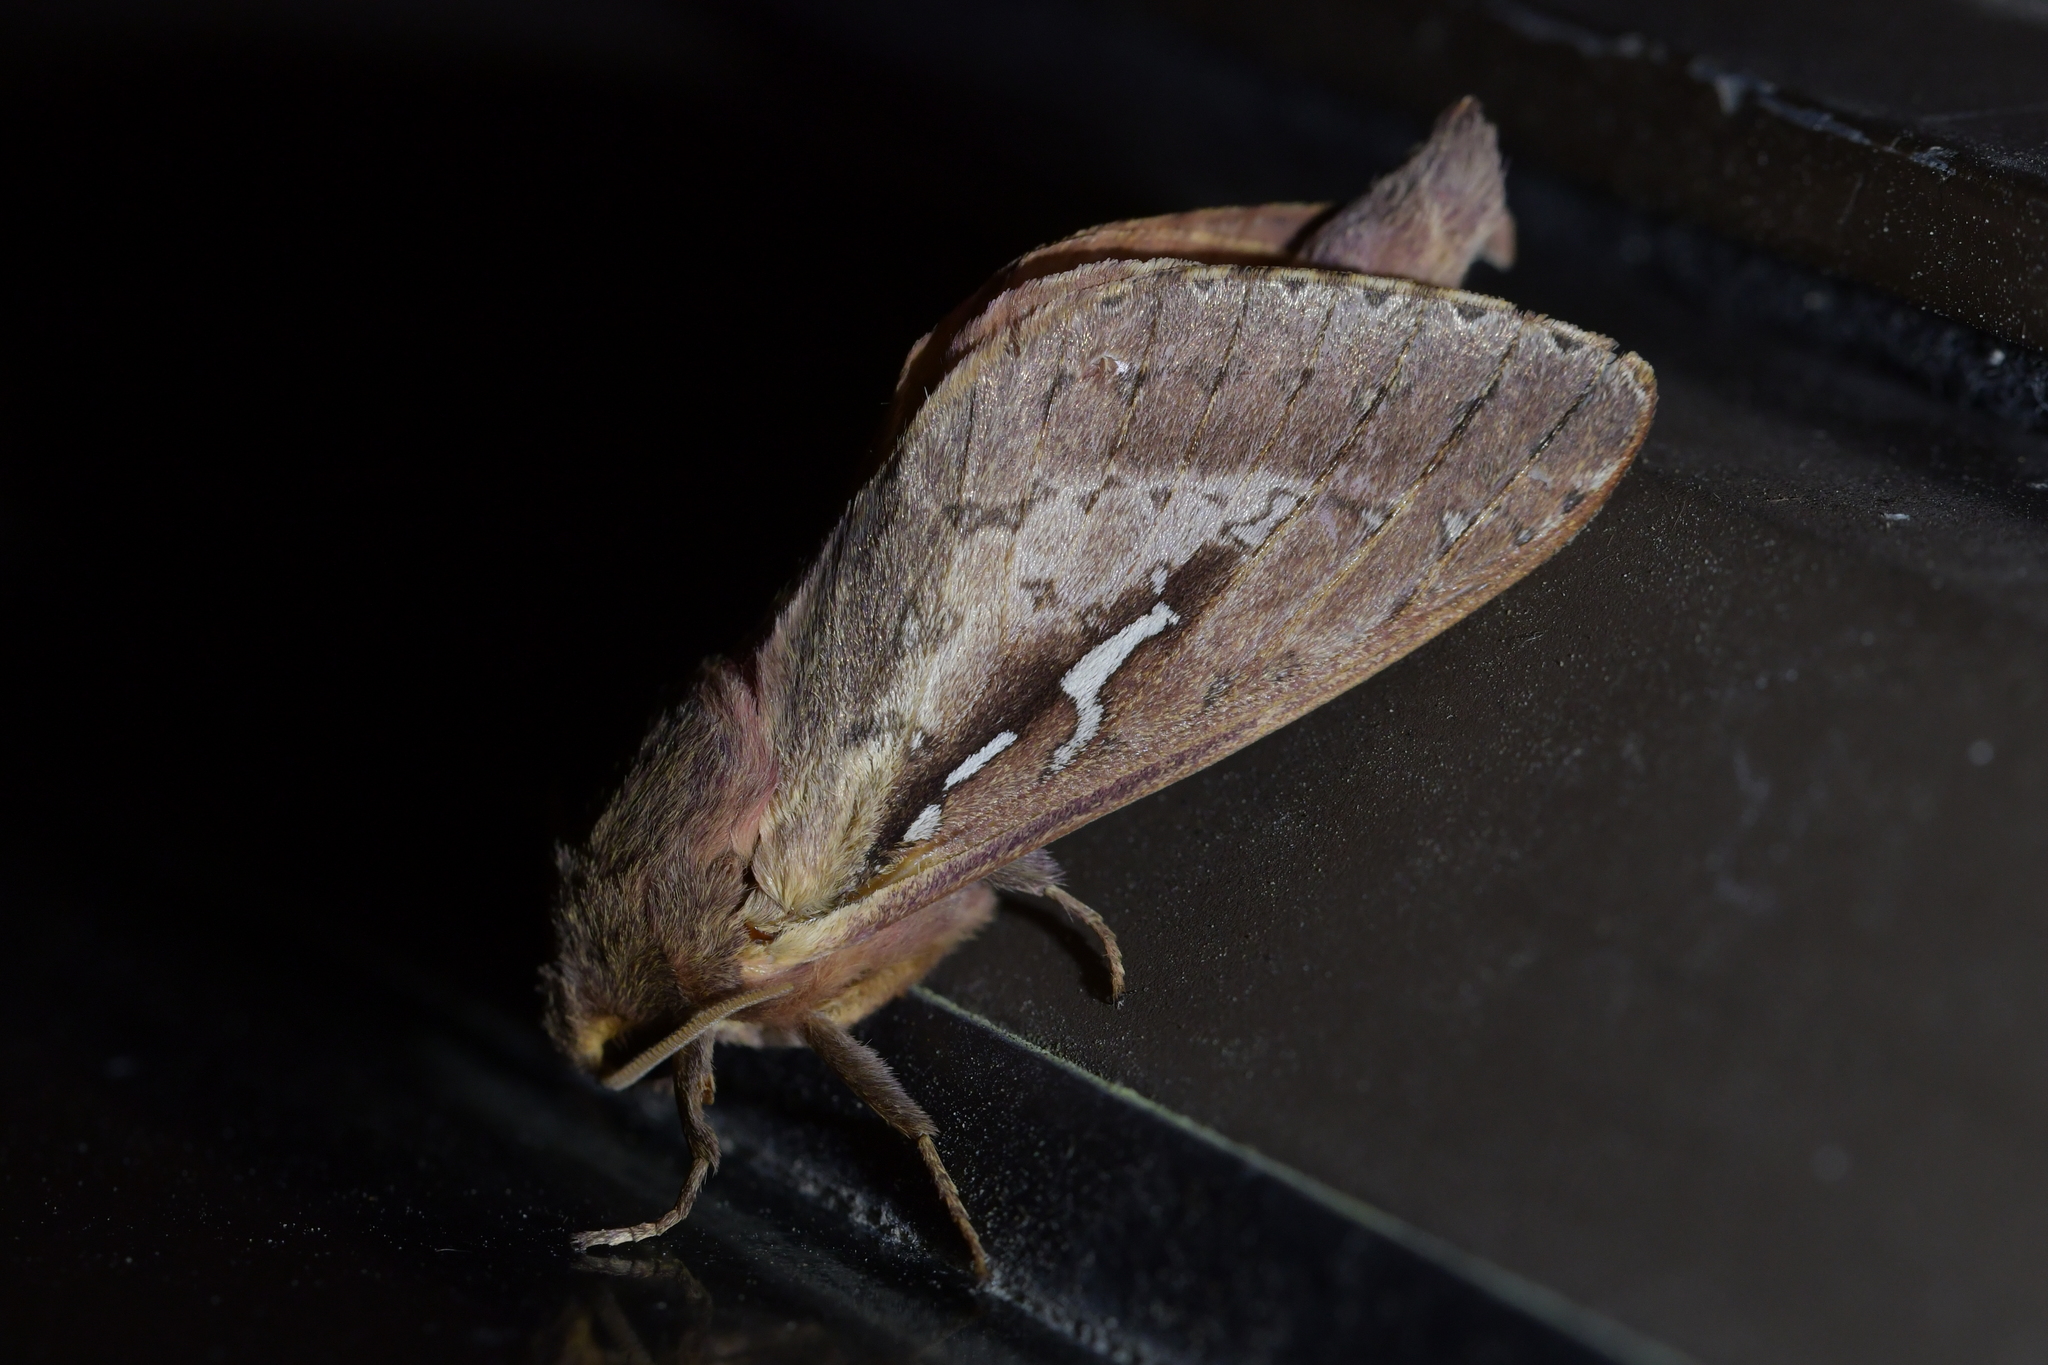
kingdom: Animalia
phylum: Arthropoda
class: Insecta
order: Lepidoptera
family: Hepialidae
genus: Wiseana
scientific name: Wiseana signata
